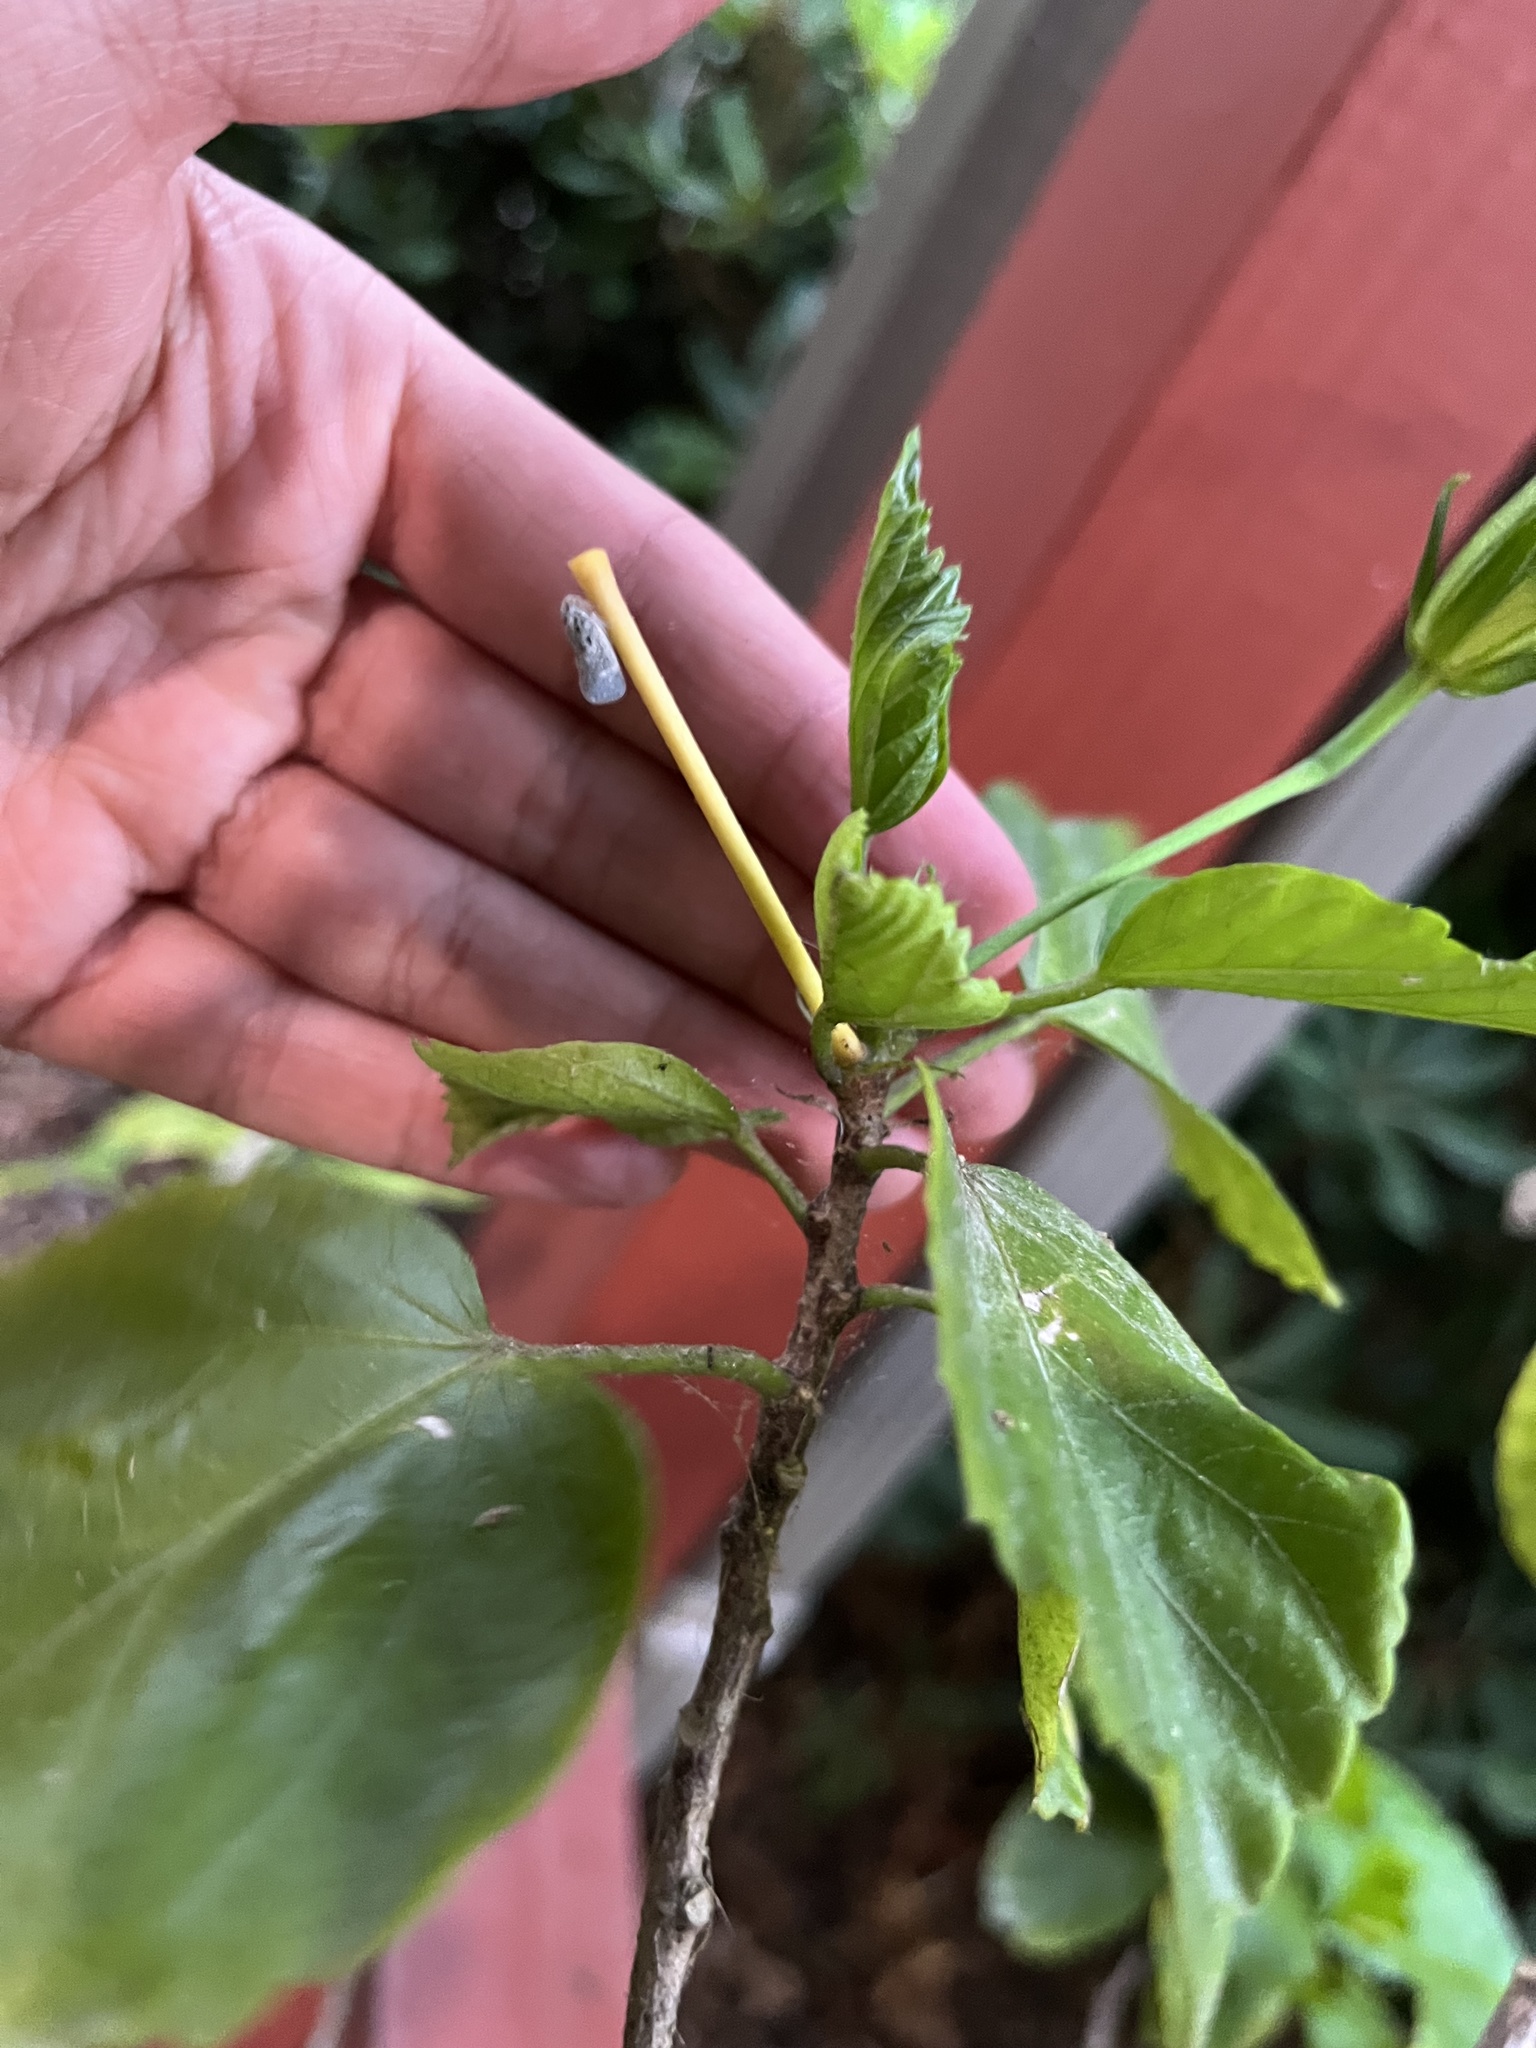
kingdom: Animalia
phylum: Arthropoda
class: Insecta
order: Hemiptera
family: Flatidae
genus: Metcalfa
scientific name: Metcalfa pruinosa
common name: Citrus flatid planthopper
